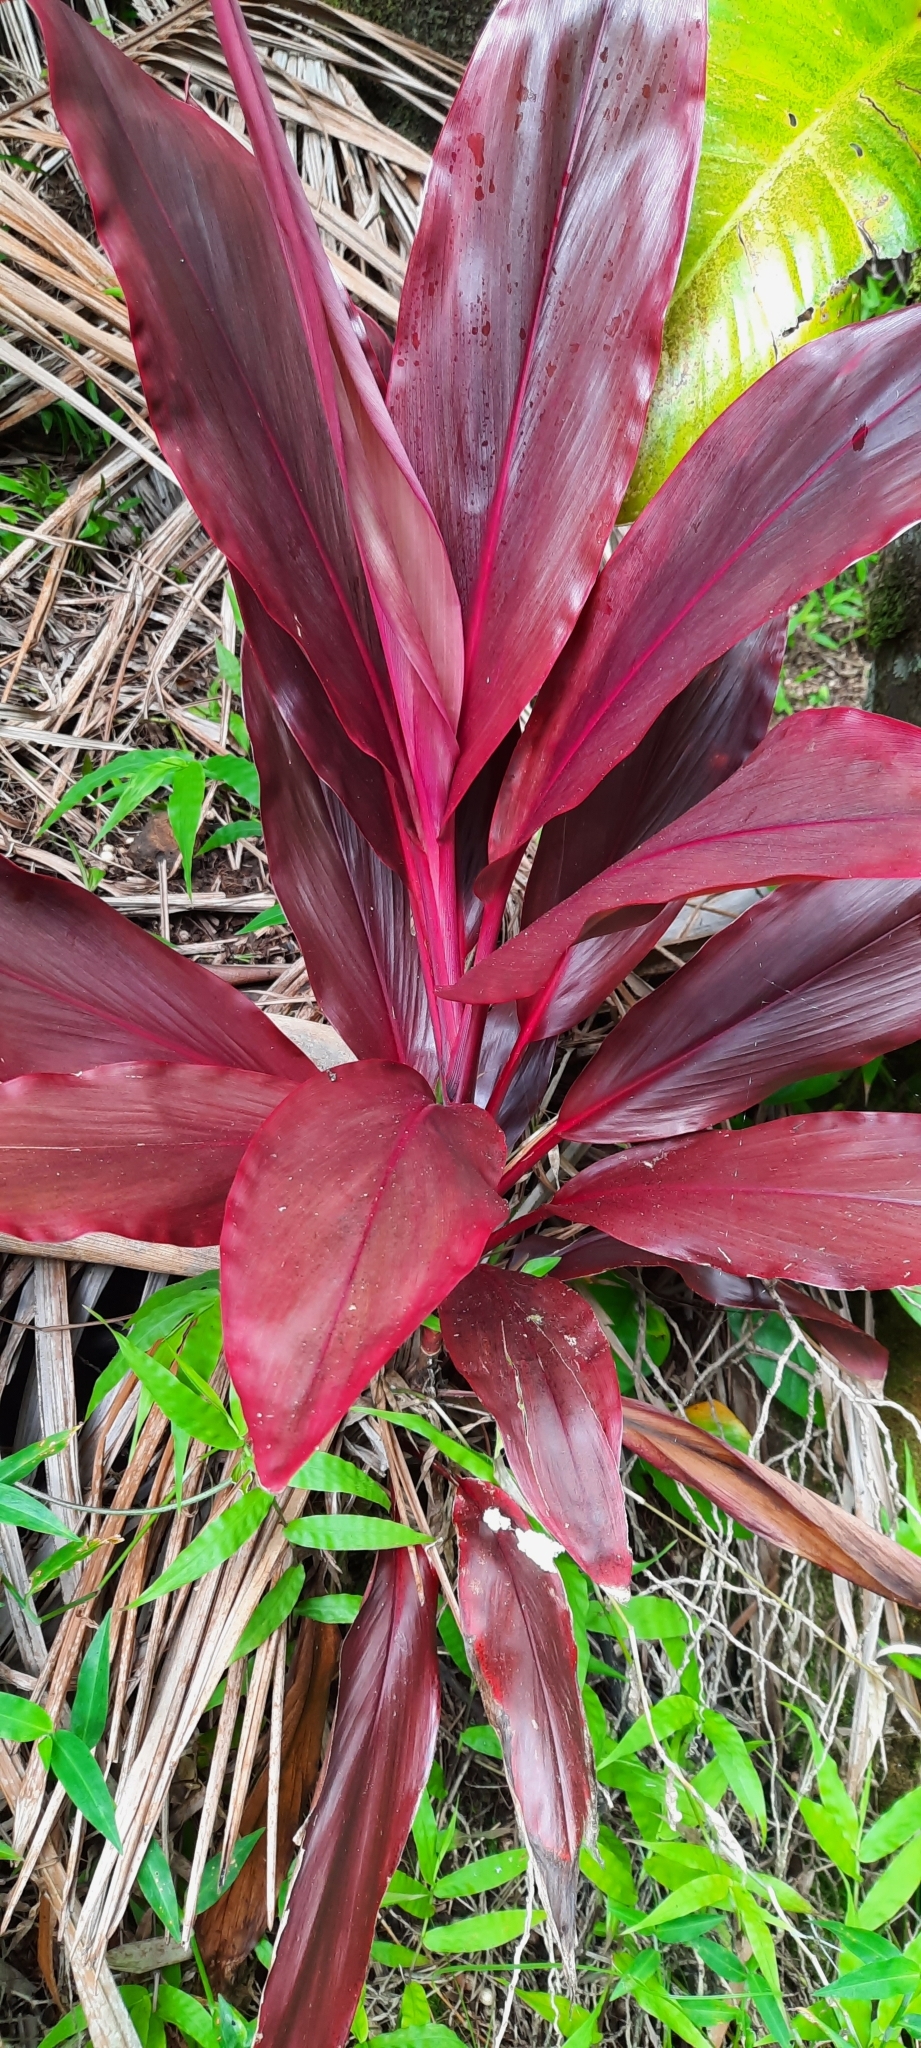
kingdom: Plantae
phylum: Tracheophyta
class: Liliopsida
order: Asparagales
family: Asparagaceae
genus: Cordyline
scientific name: Cordyline fruticosa
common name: Good-luck-plant
